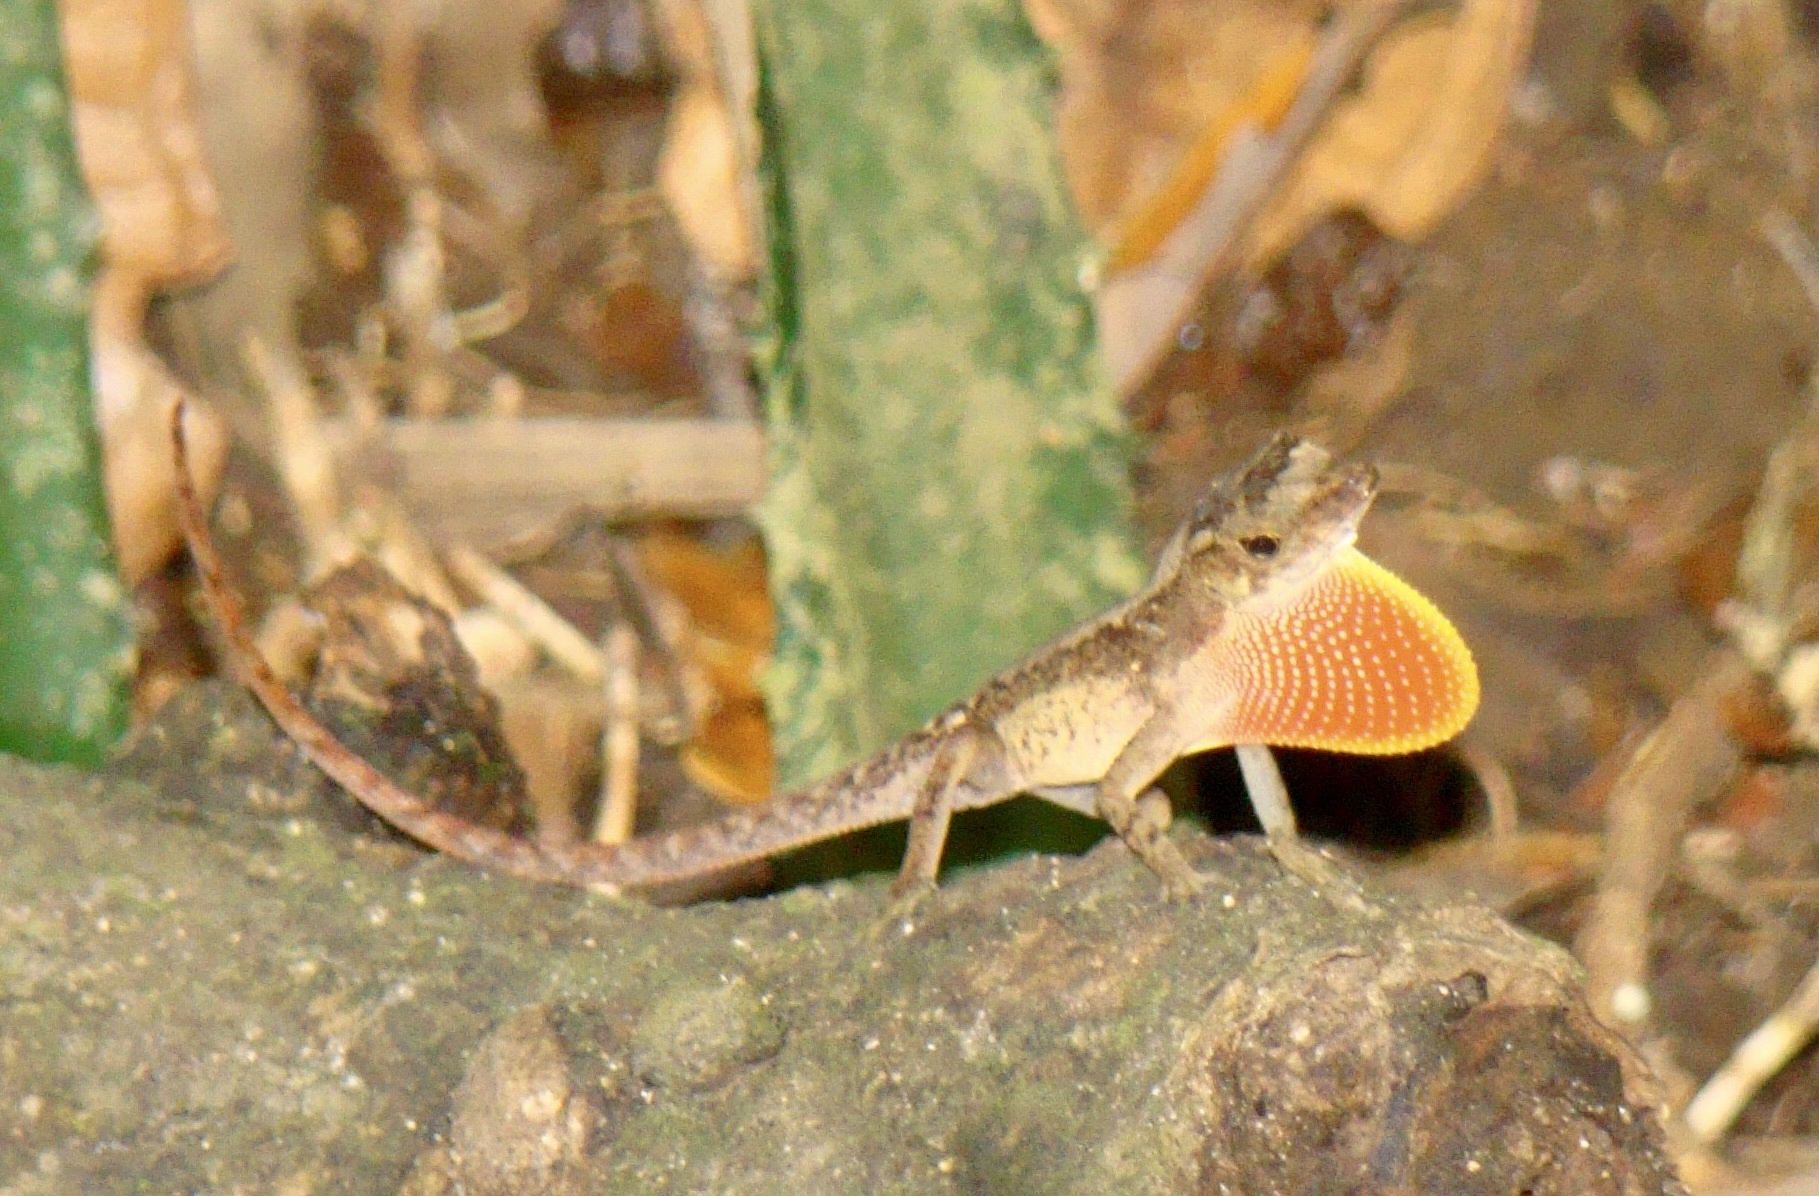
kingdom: Animalia
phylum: Chordata
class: Squamata
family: Dactyloidae
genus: Anolis
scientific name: Anolis humilis
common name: Humble anole
